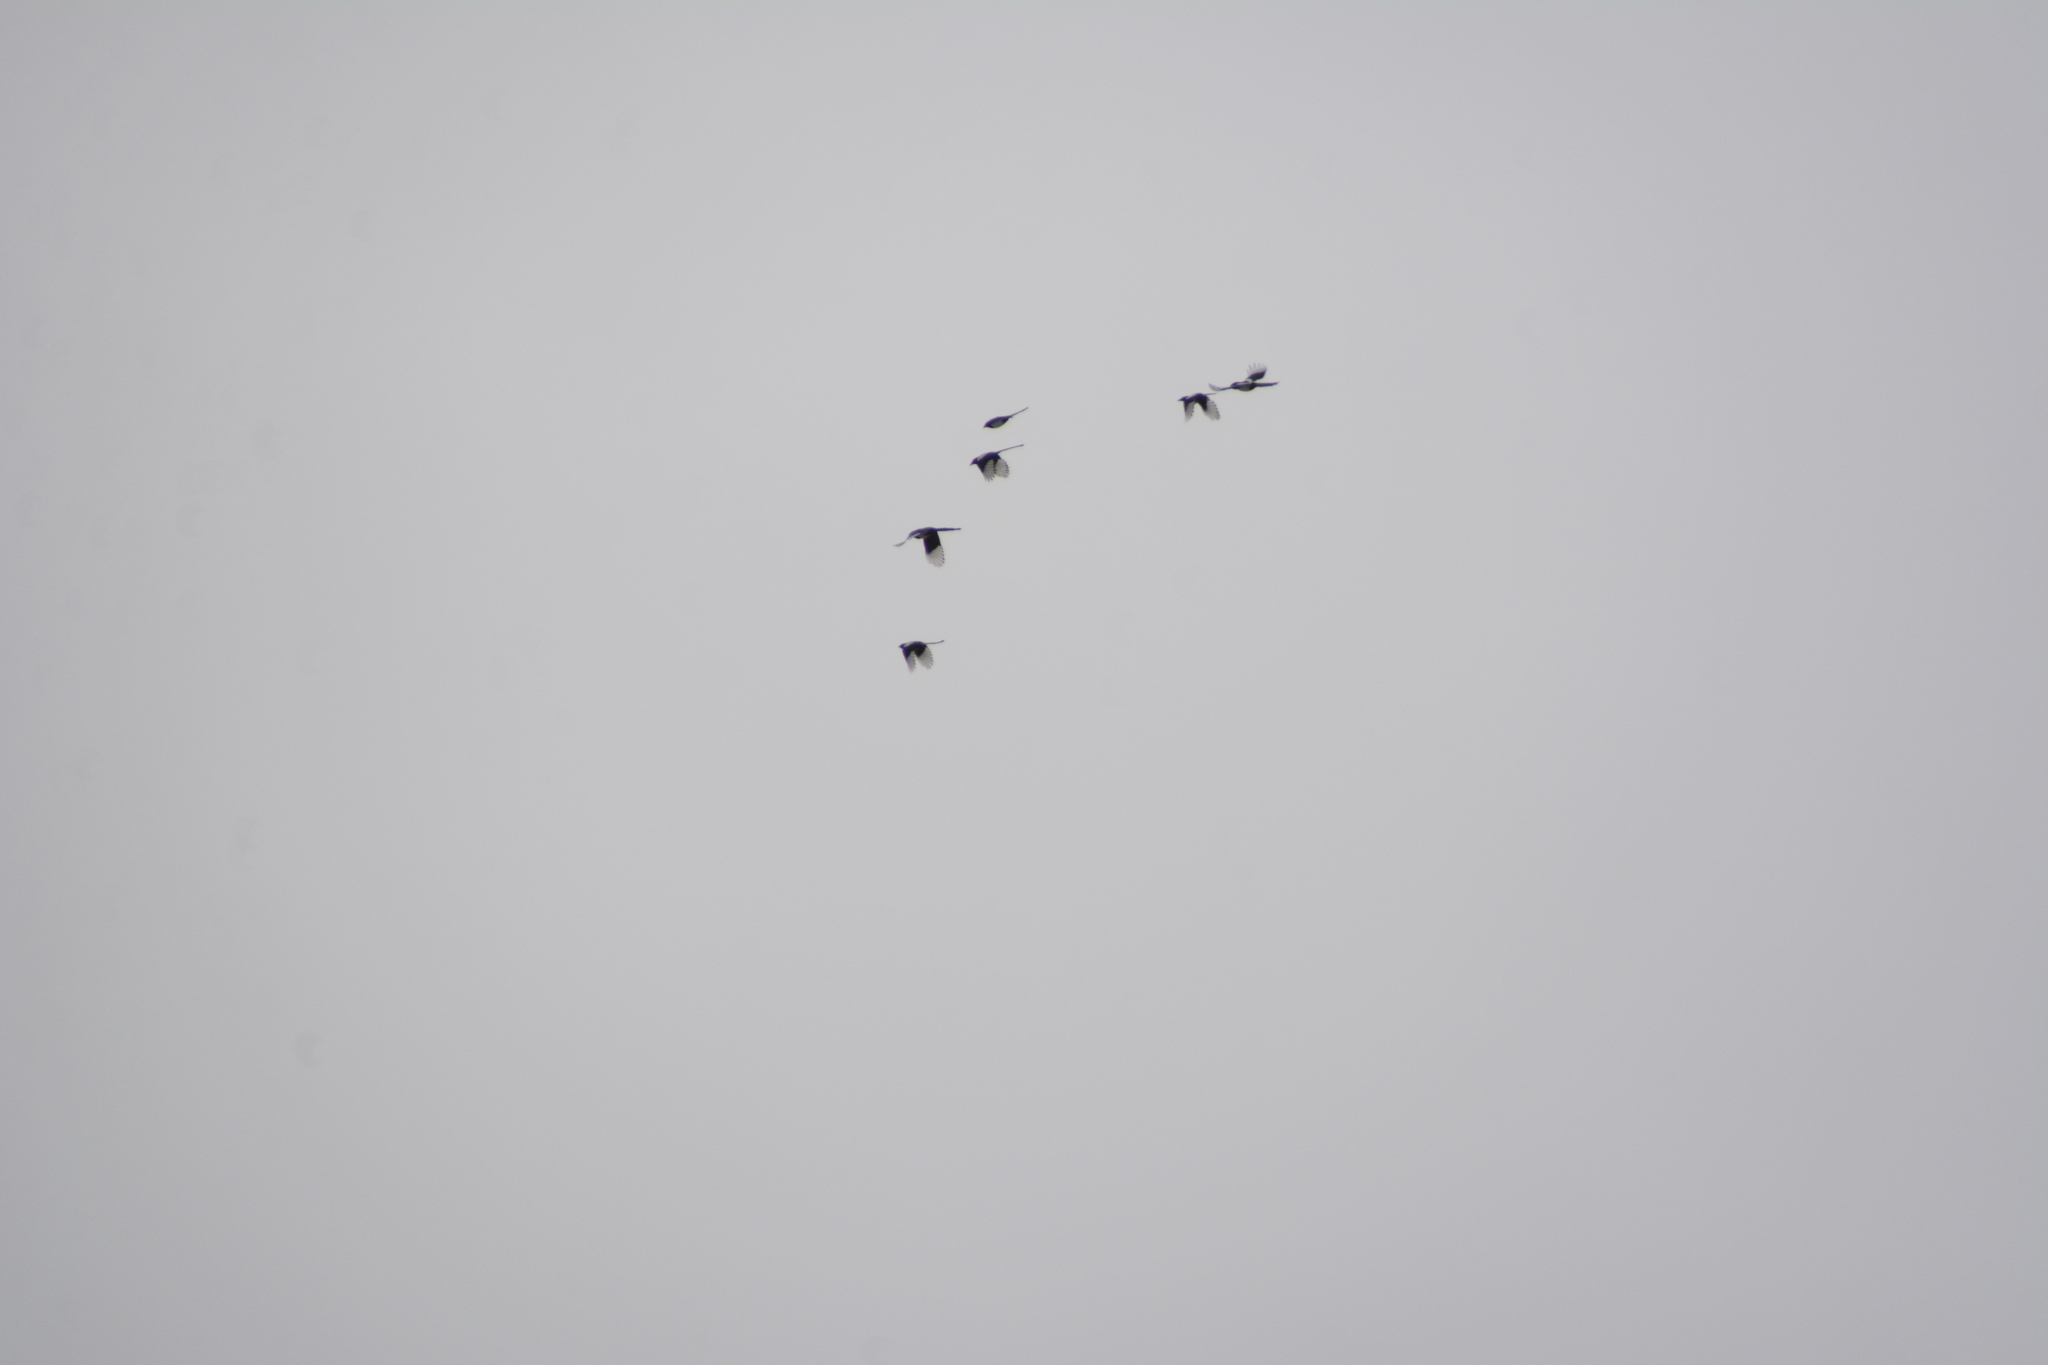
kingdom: Animalia
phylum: Chordata
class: Aves
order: Passeriformes
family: Corvidae
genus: Pica
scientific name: Pica pica
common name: Eurasian magpie
